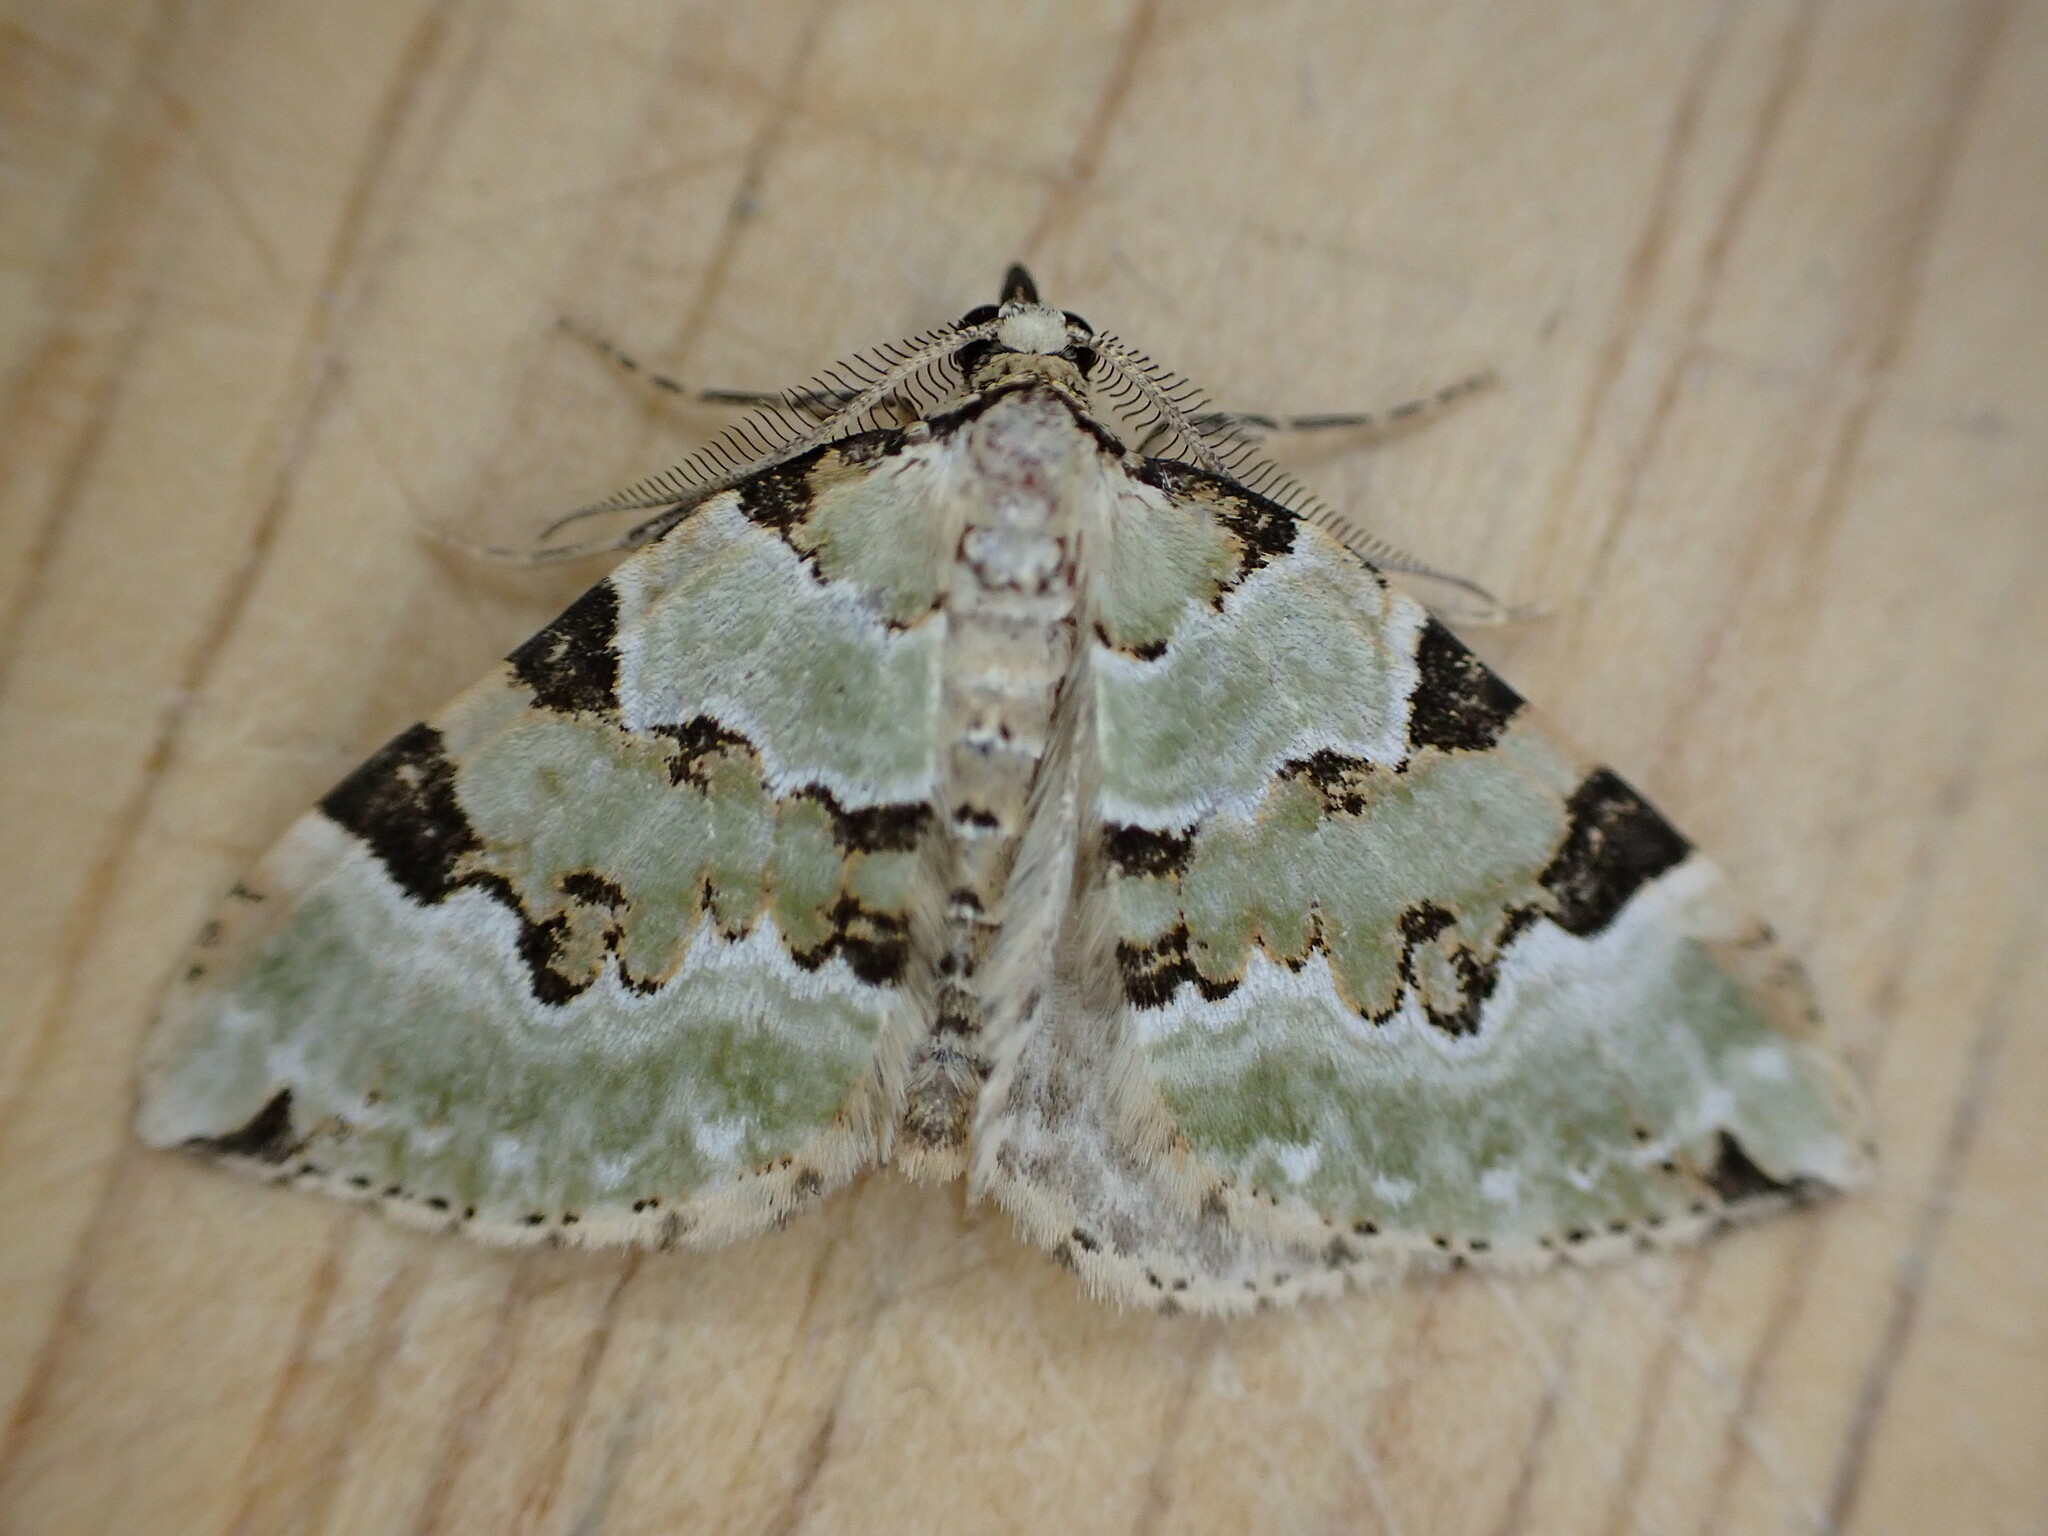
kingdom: Animalia
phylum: Arthropoda
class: Insecta
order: Lepidoptera
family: Geometridae
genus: Colostygia
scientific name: Colostygia pectinataria
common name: Green carpet
